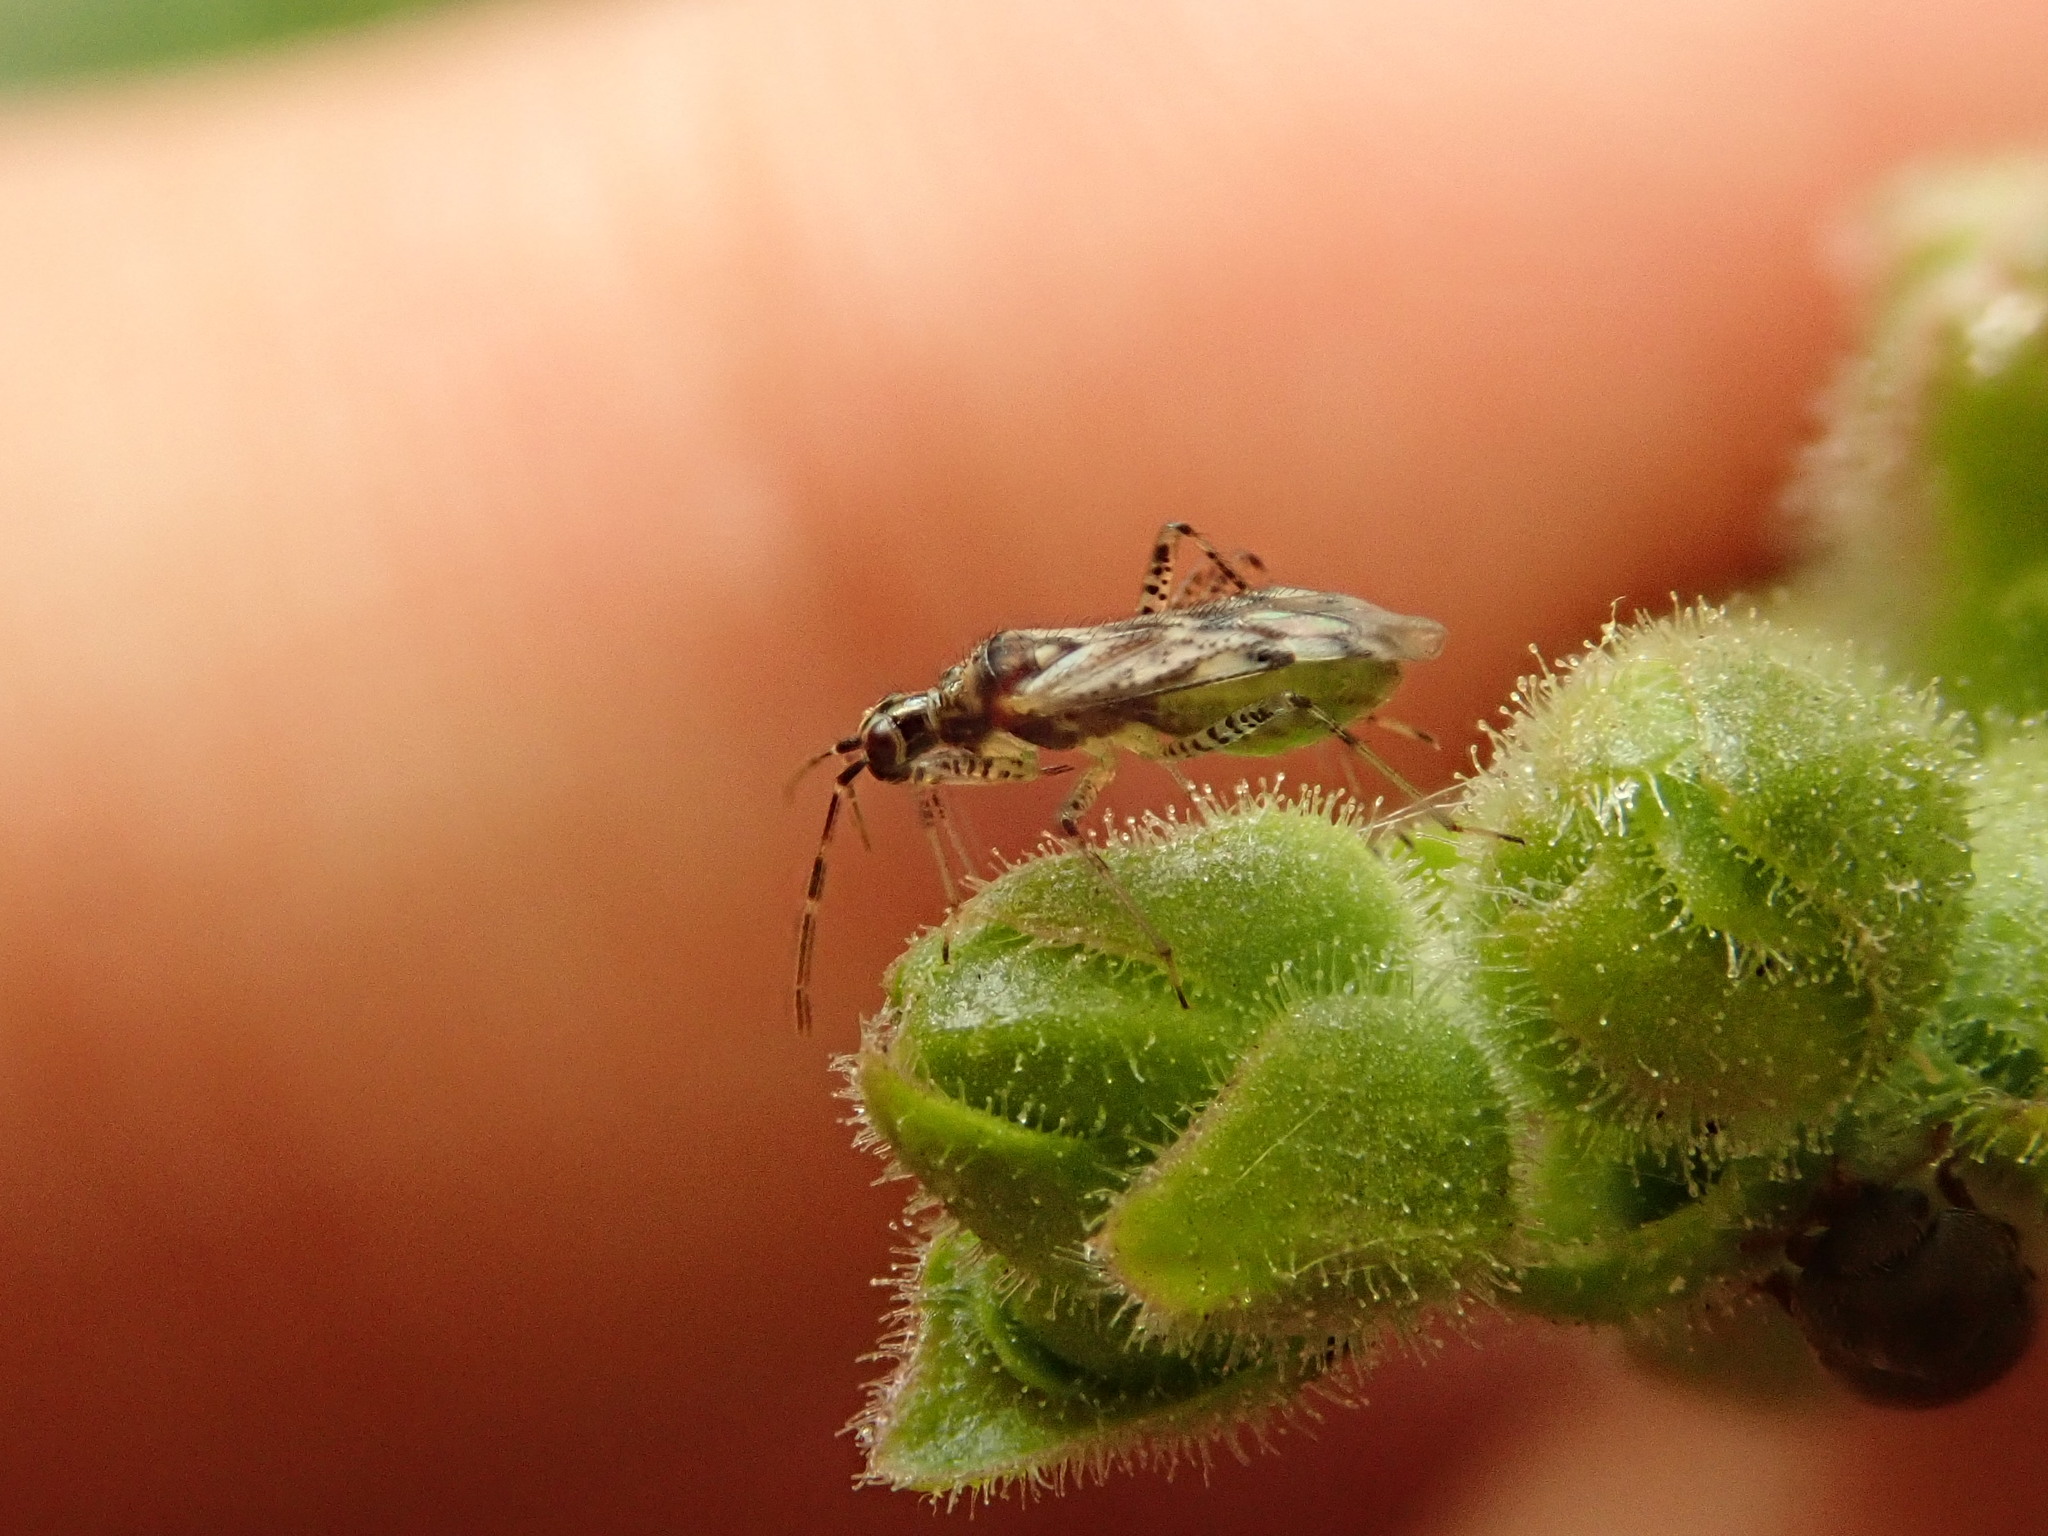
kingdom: Animalia
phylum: Arthropoda
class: Insecta
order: Hemiptera
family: Miridae
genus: Dicyphus
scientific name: Dicyphus escalerae
